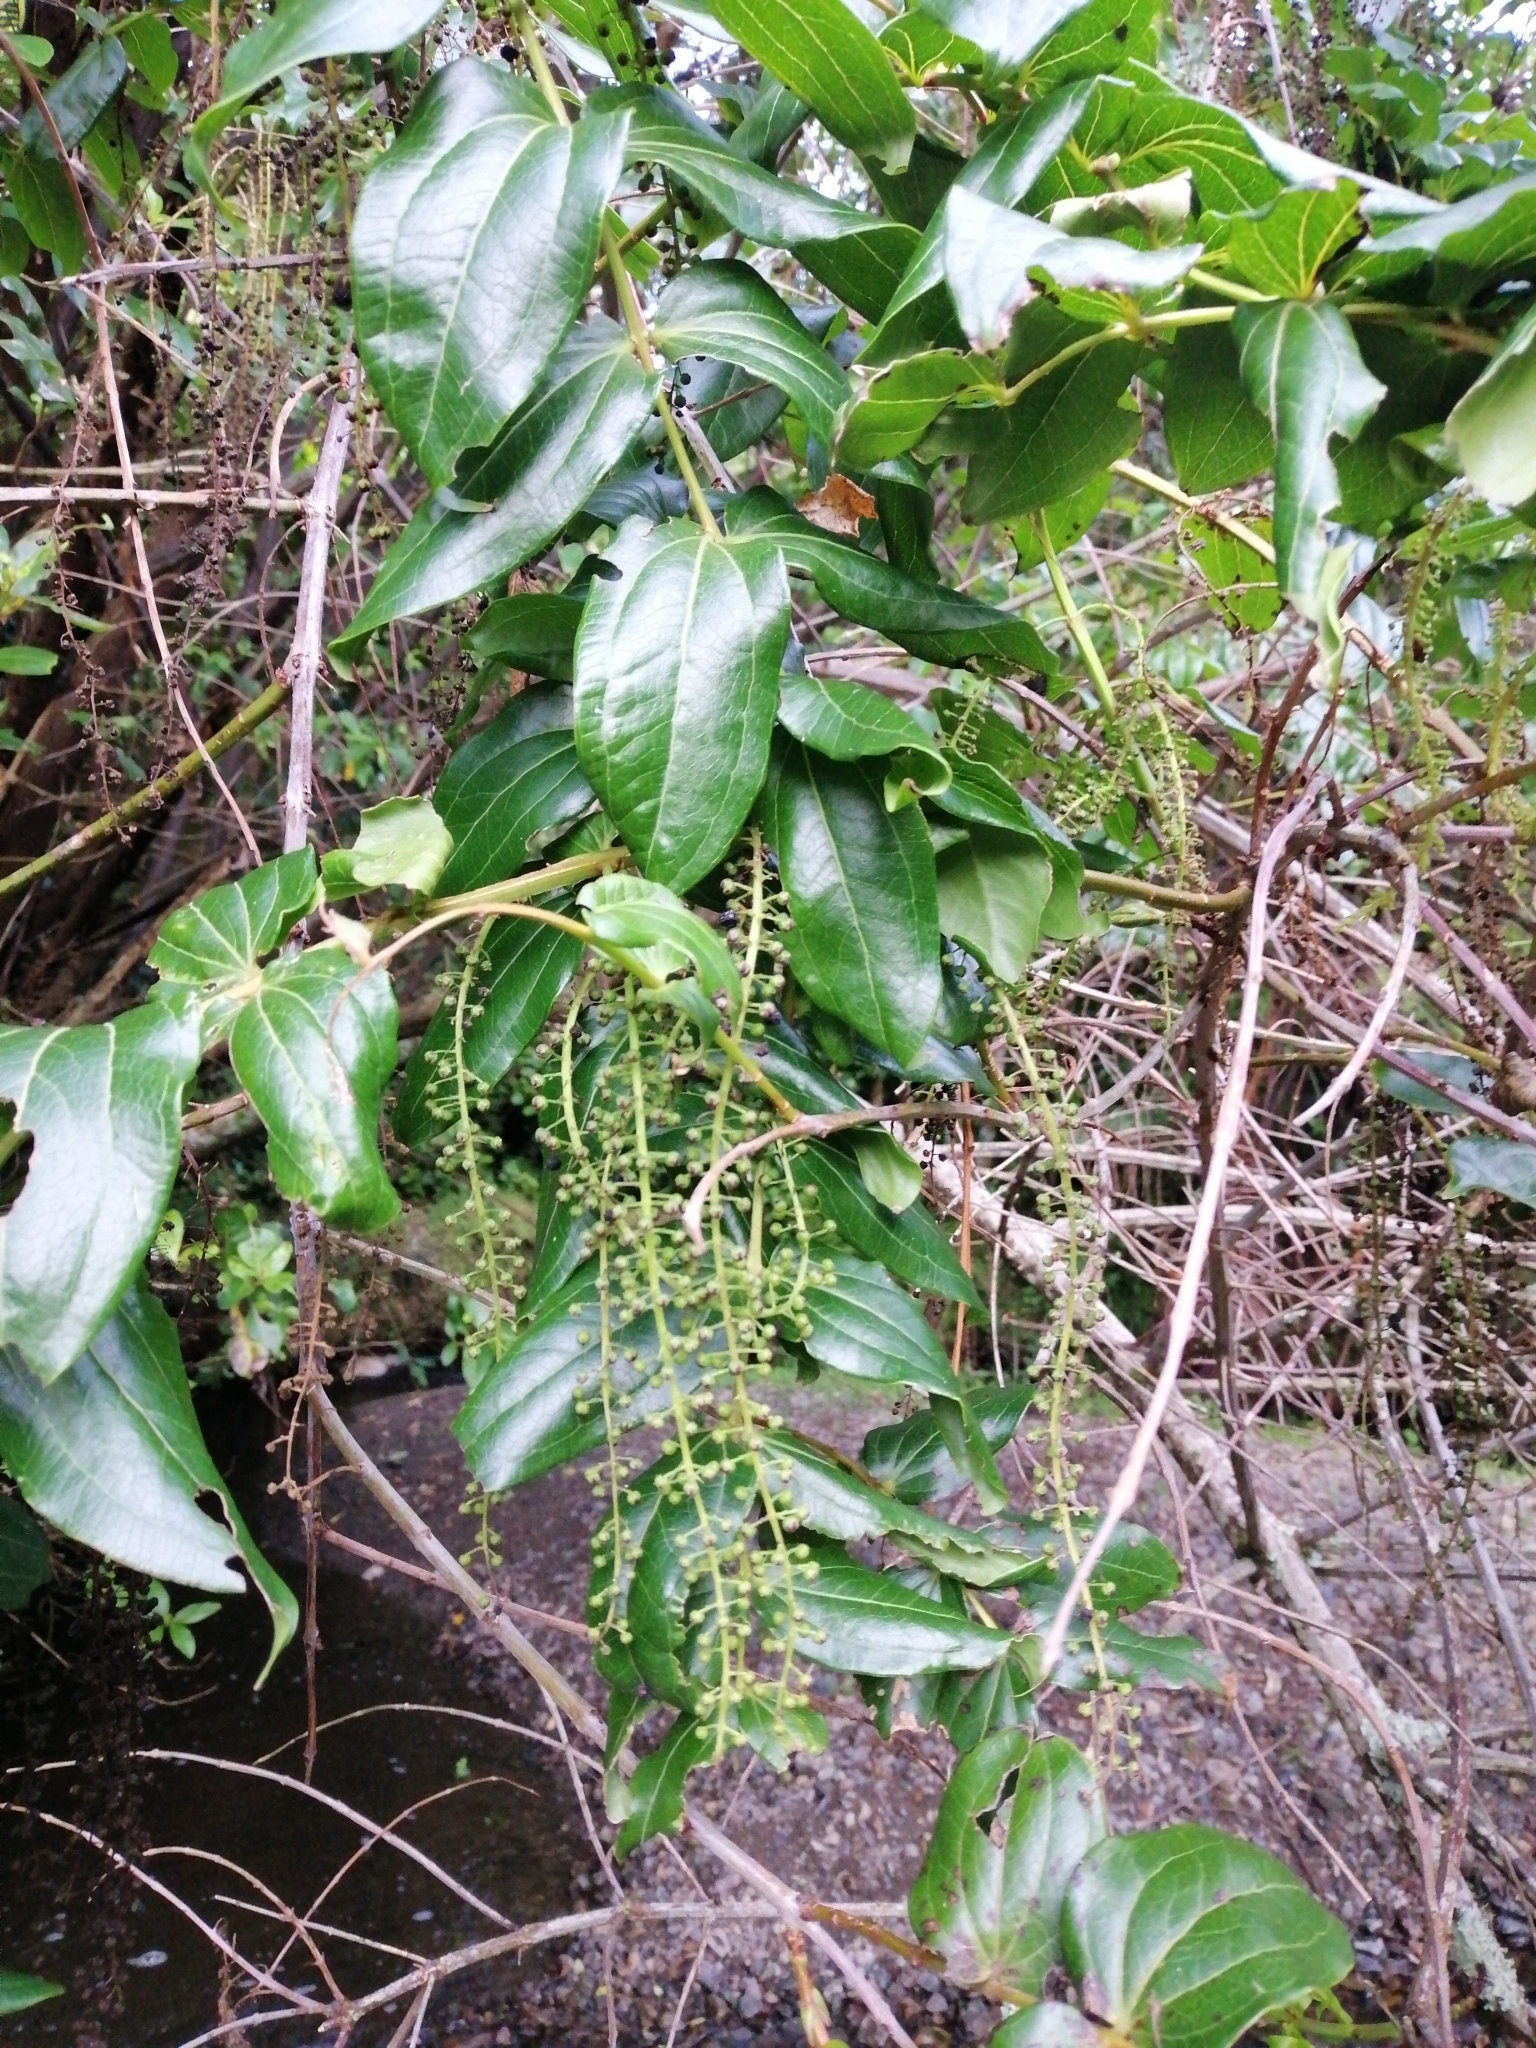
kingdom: Plantae
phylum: Tracheophyta
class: Magnoliopsida
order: Cucurbitales
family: Coriariaceae
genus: Coriaria
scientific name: Coriaria arborea
